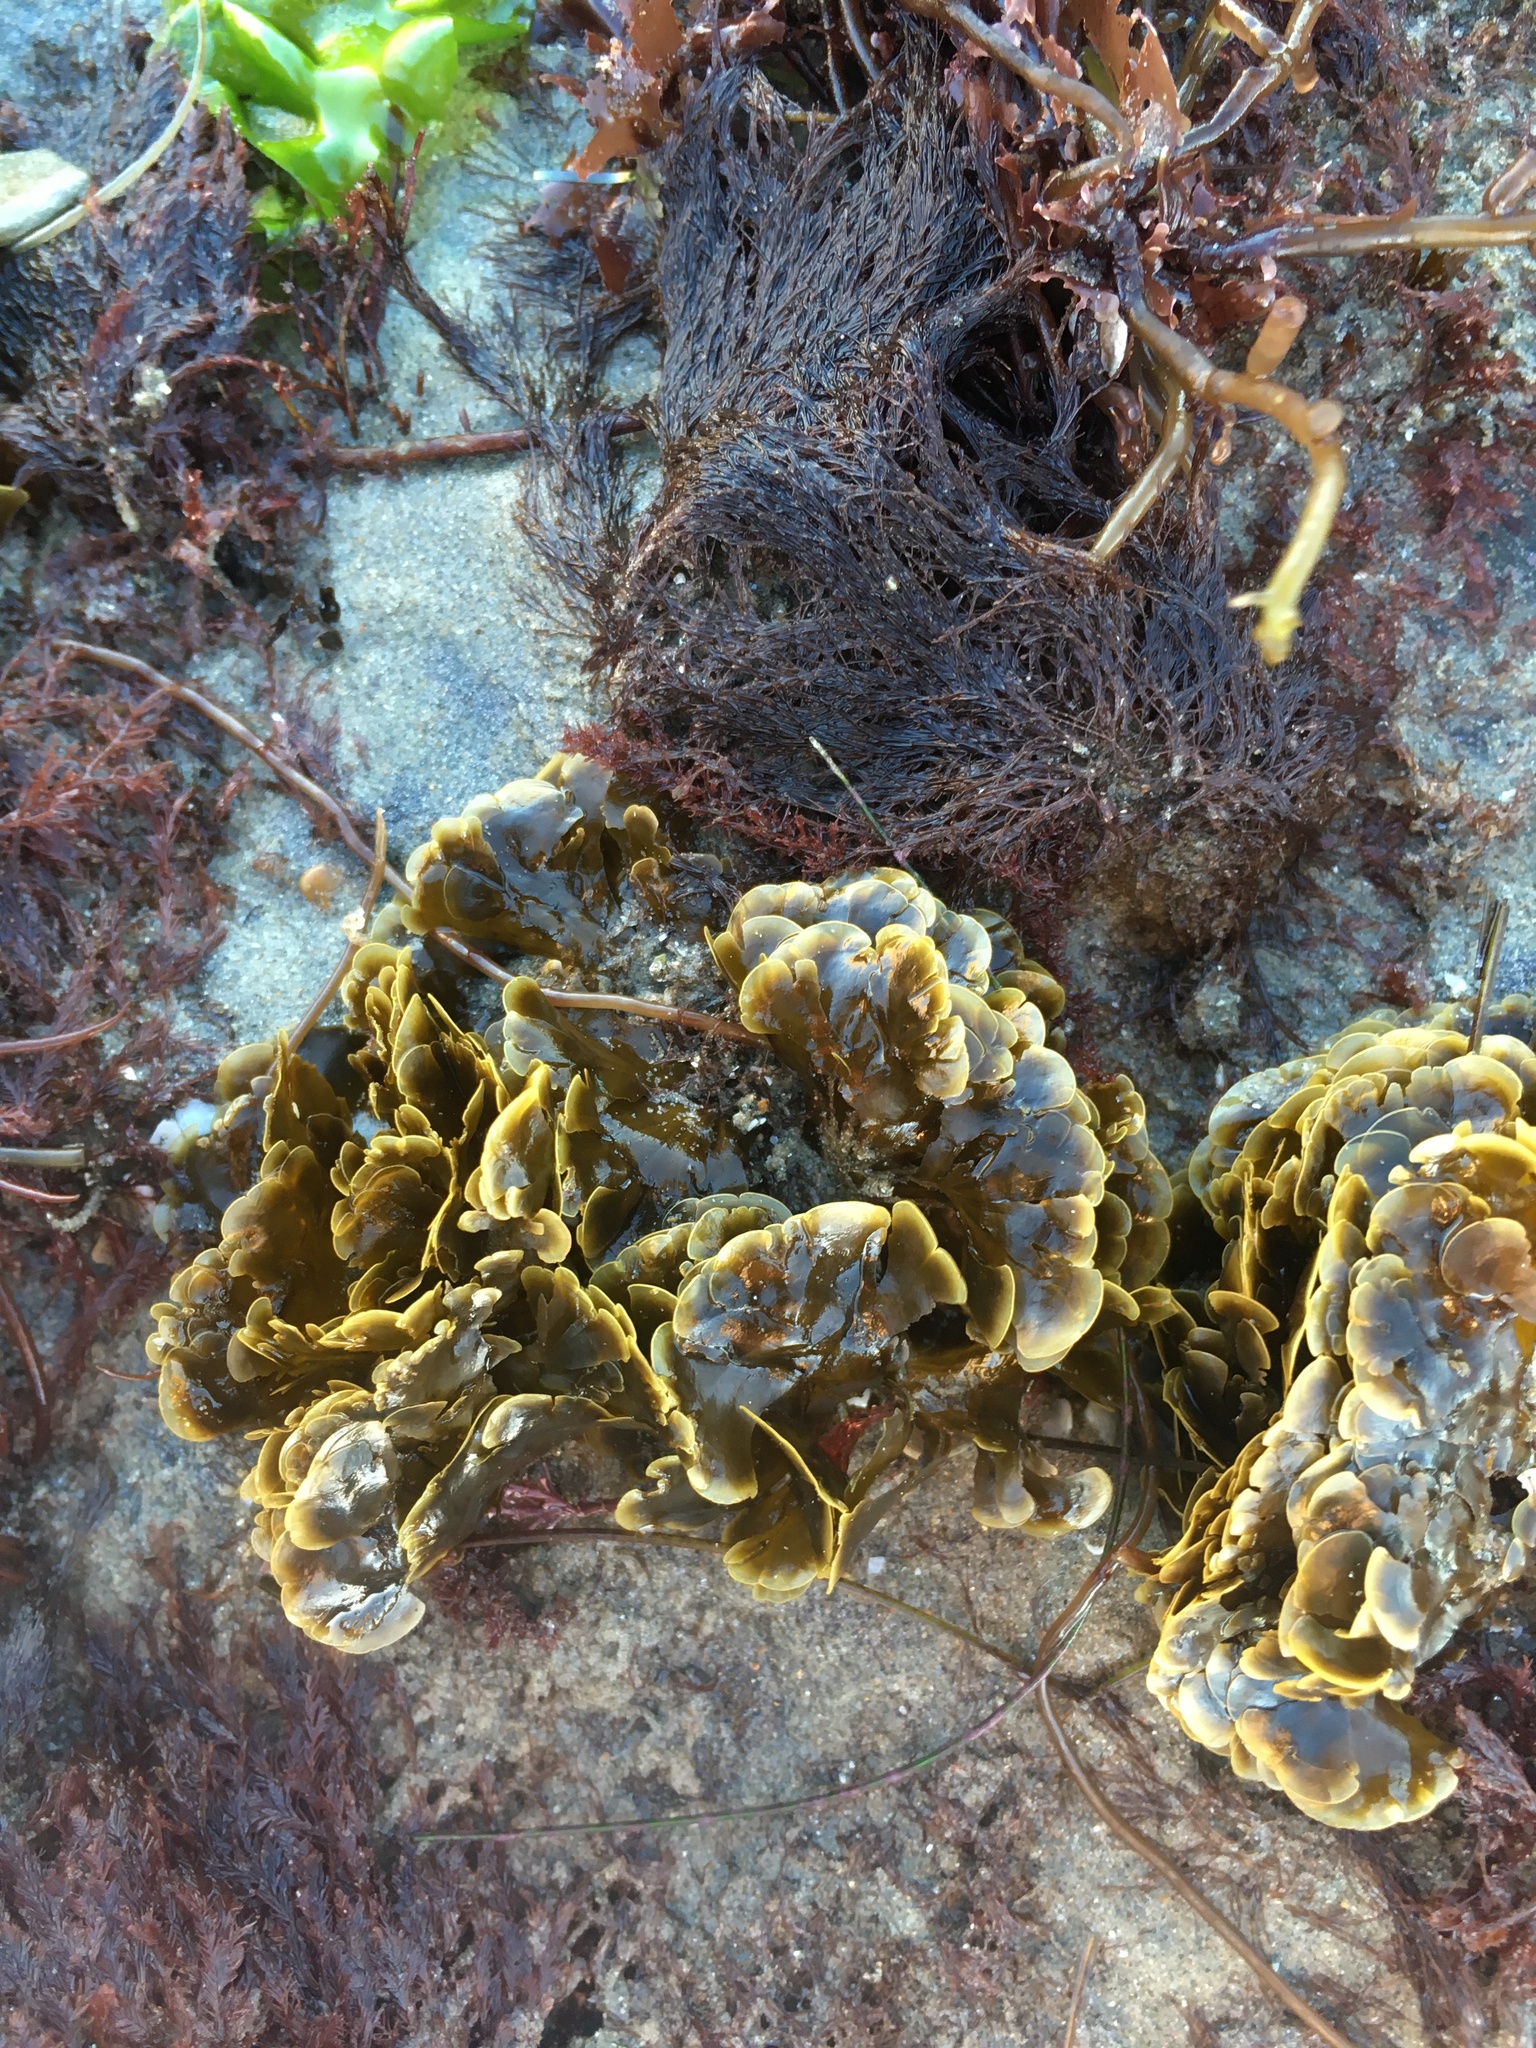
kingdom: Chromista
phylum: Ochrophyta
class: Phaeophyceae
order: Dictyotales
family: Dictyotaceae
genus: Zonaria
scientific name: Zonaria farlowii
